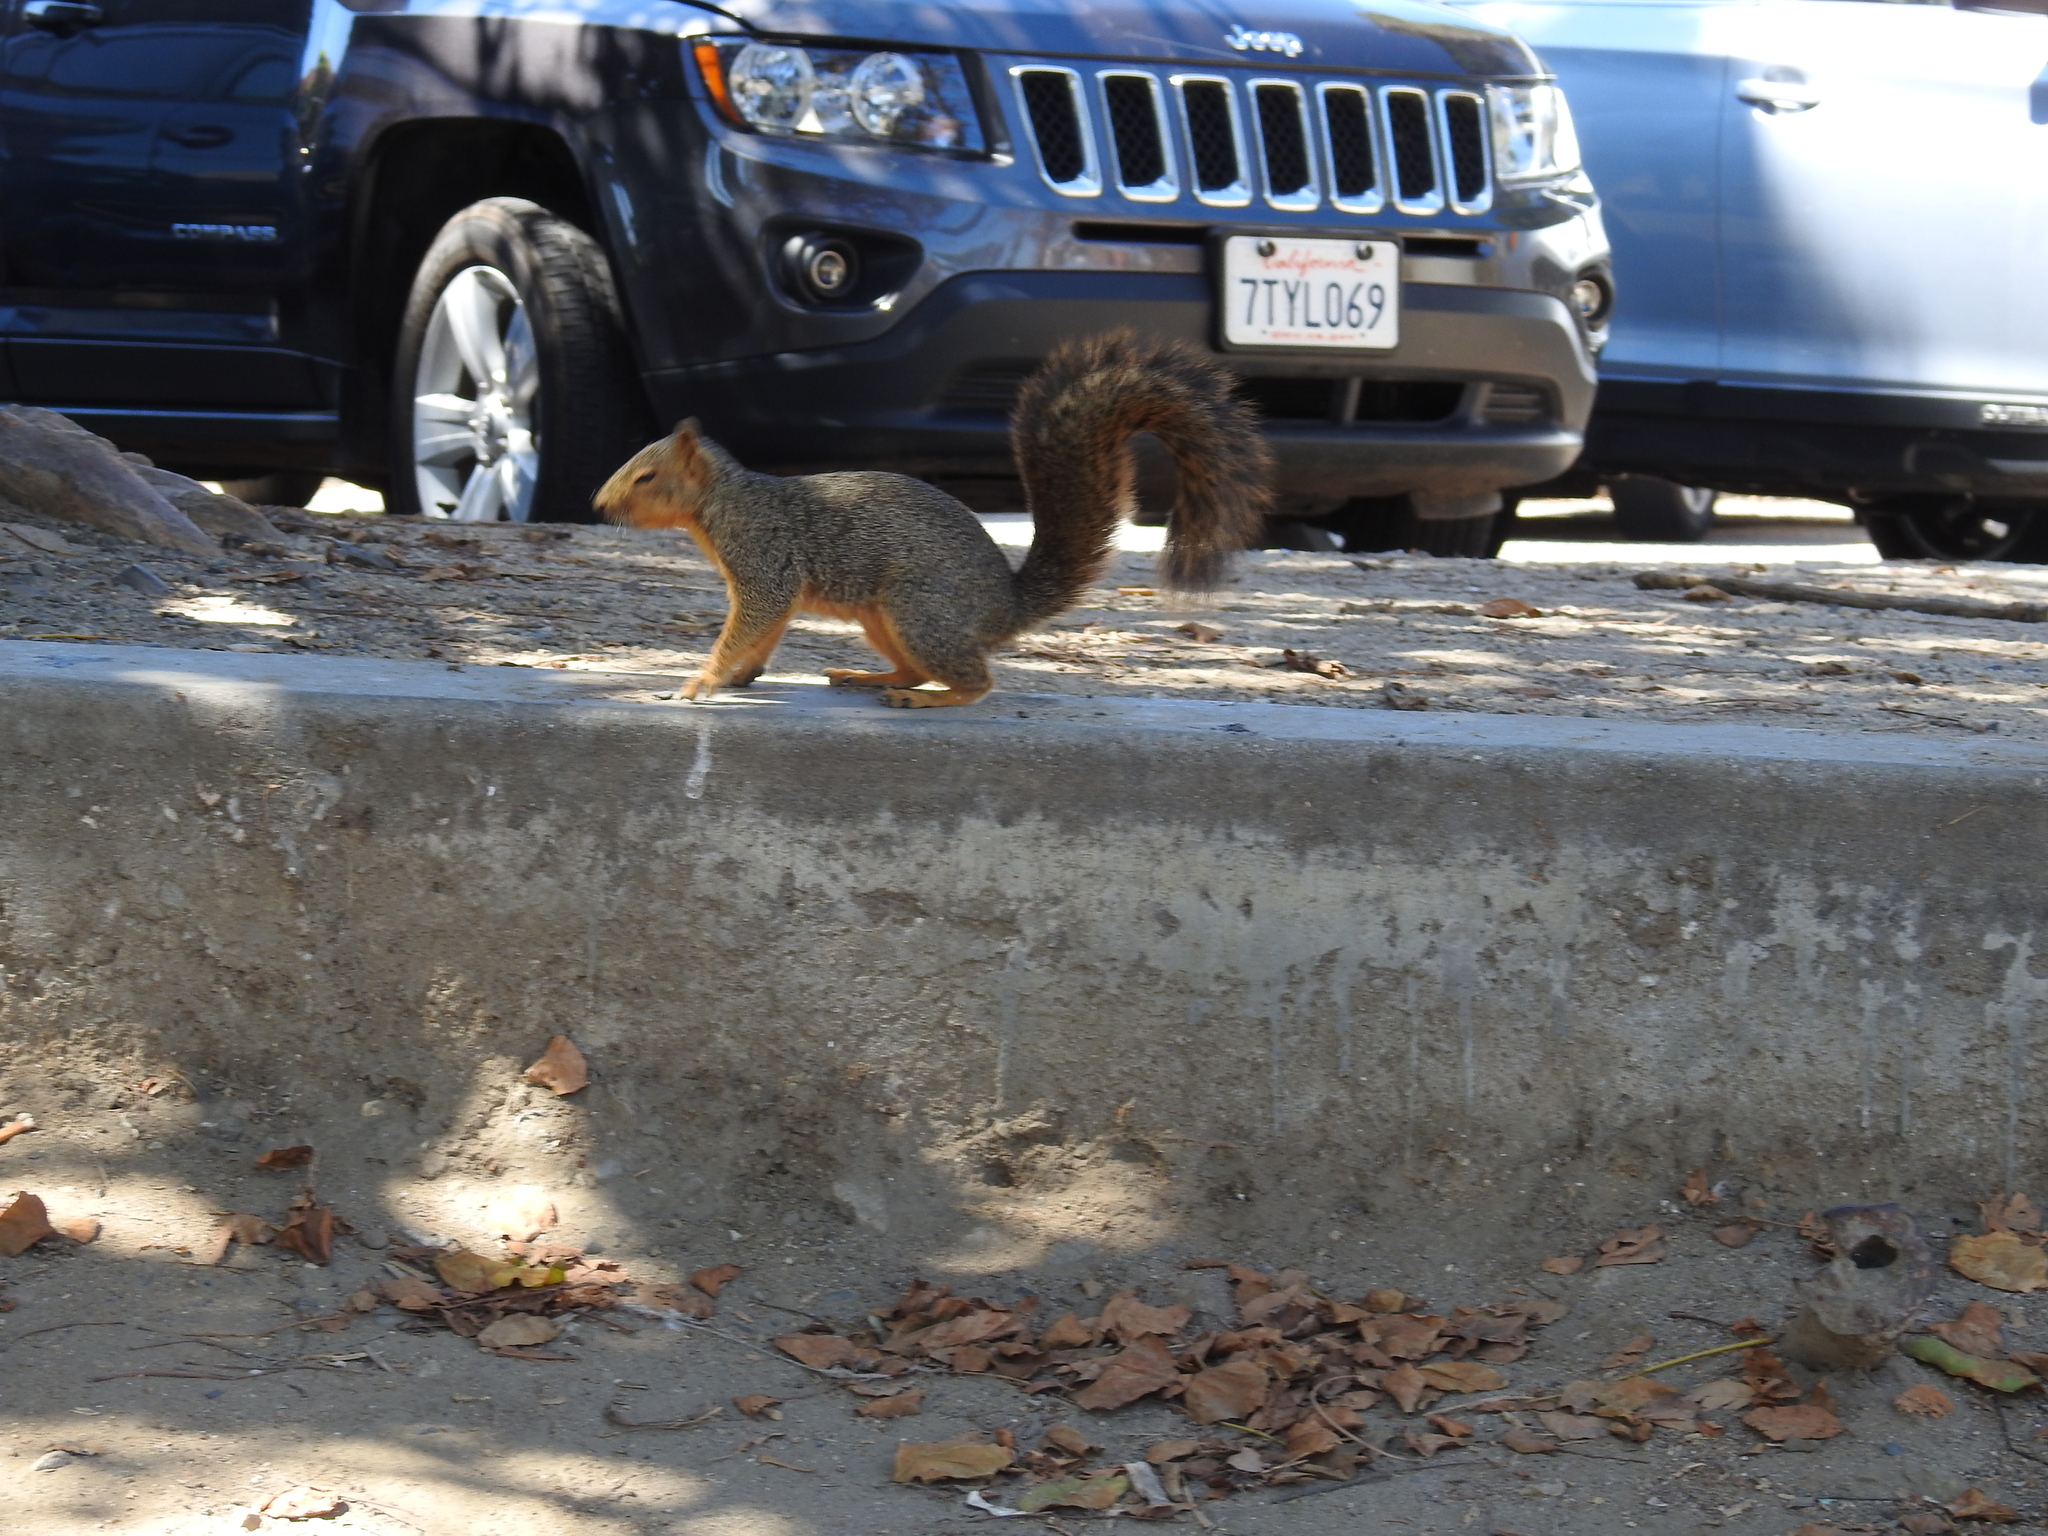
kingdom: Animalia
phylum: Chordata
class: Mammalia
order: Rodentia
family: Sciuridae
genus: Sciurus
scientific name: Sciurus niger
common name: Fox squirrel
